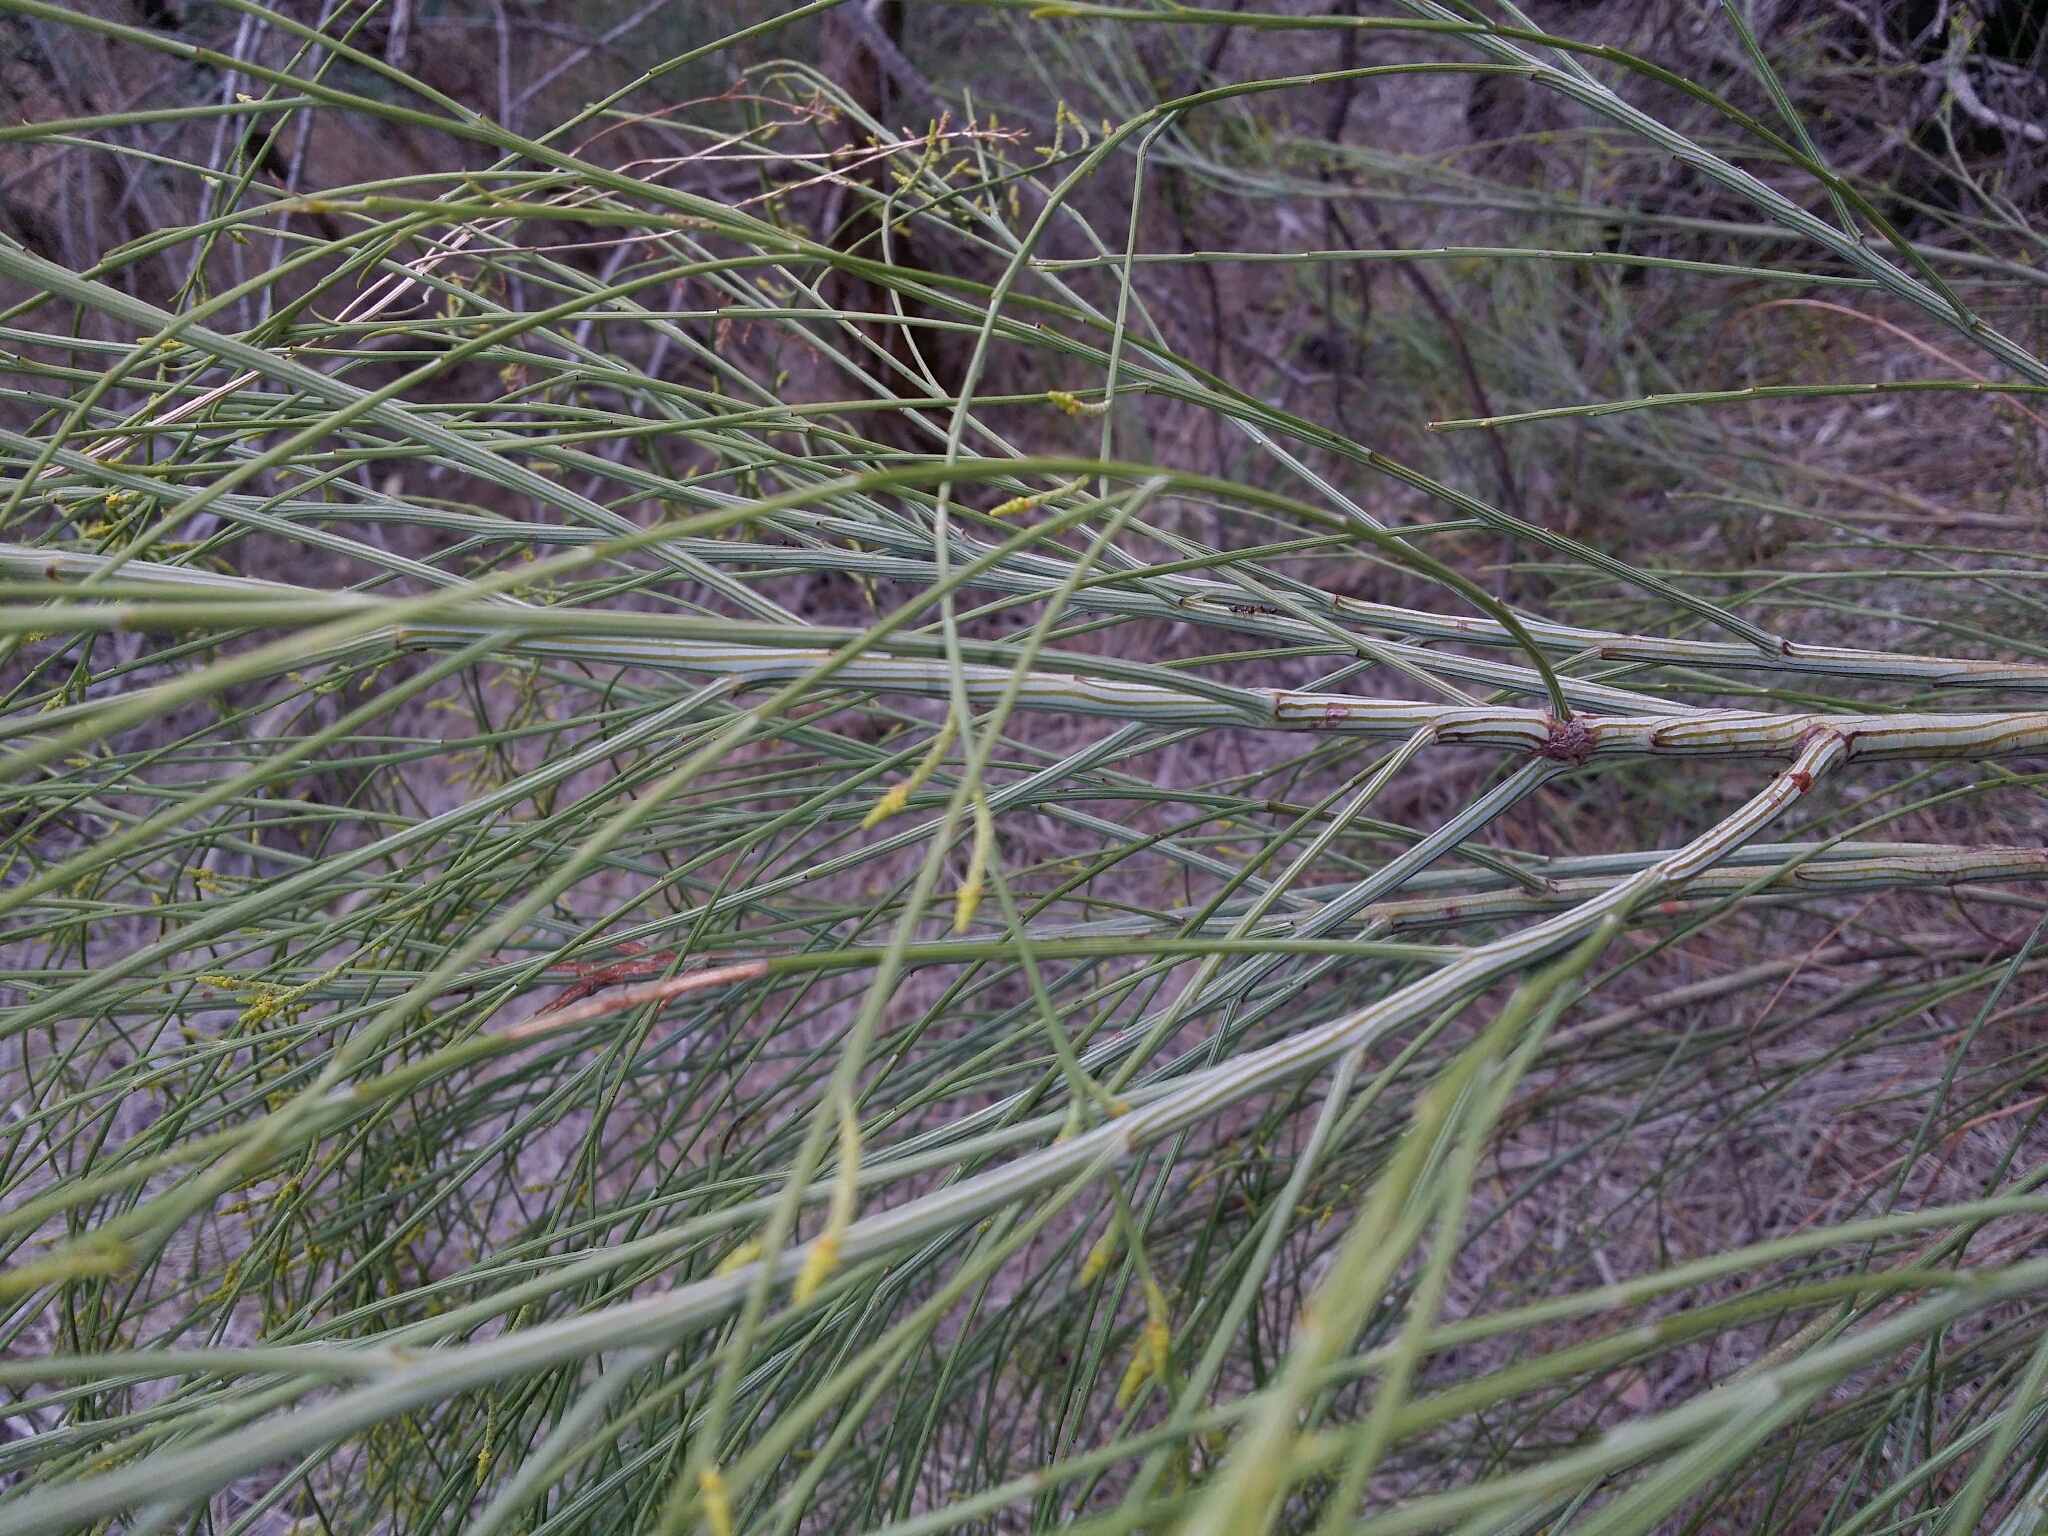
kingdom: Plantae
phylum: Tracheophyta
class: Magnoliopsida
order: Santalales
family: Santalaceae
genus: Exocarpos
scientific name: Exocarpos sparteus
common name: Broom ballart
